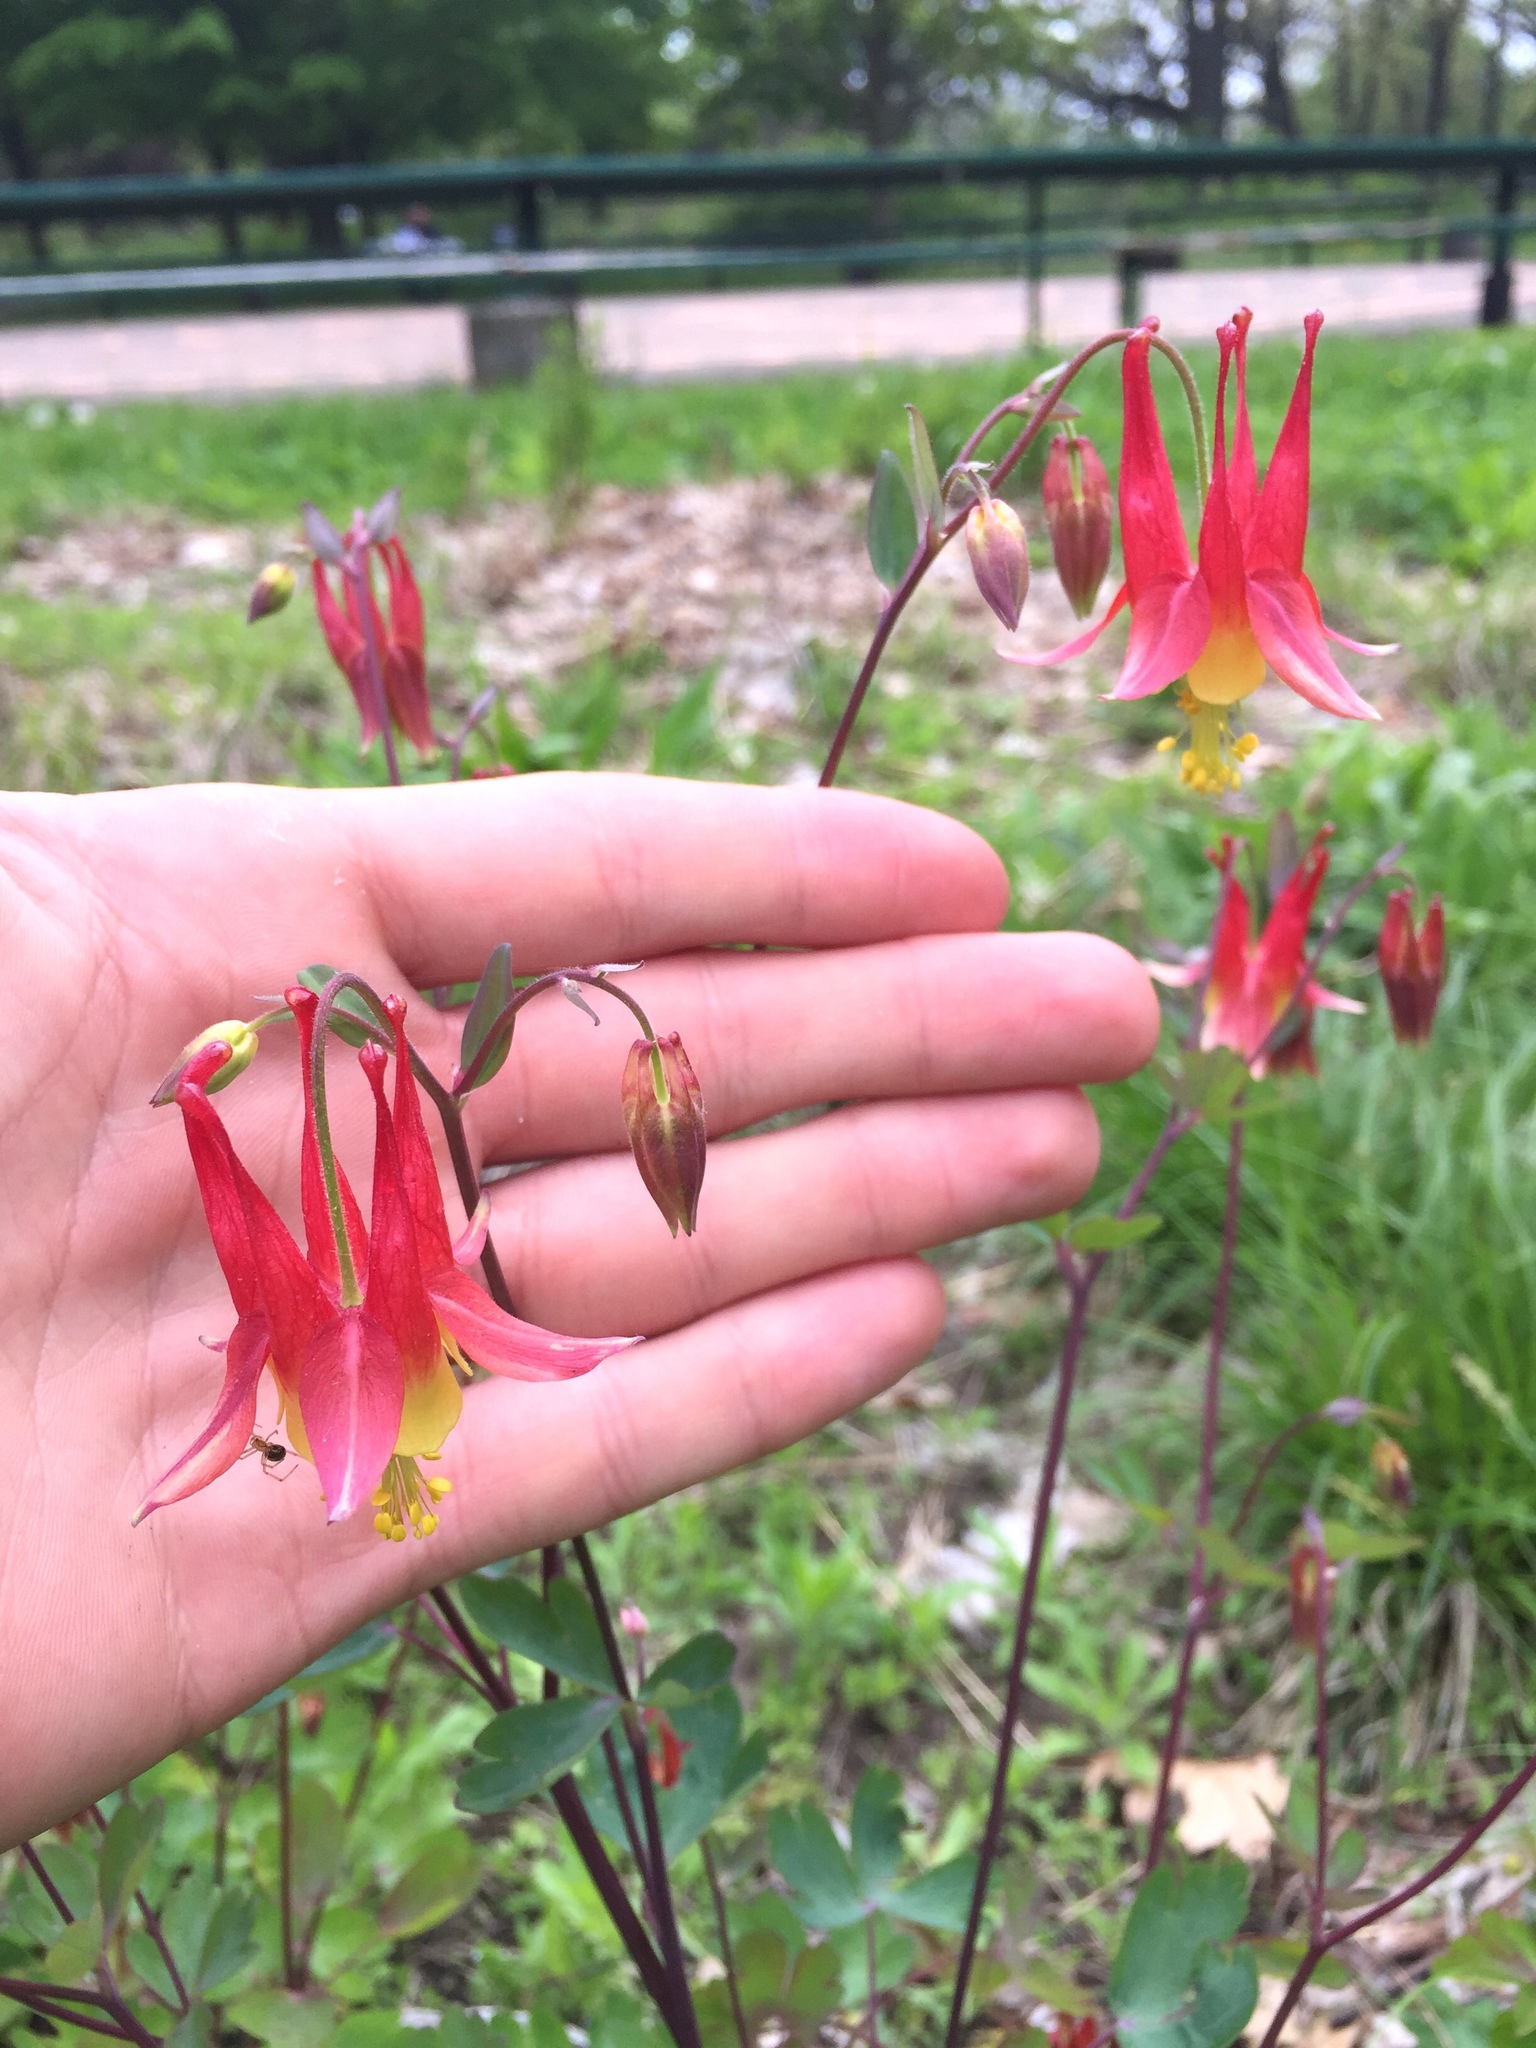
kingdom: Plantae
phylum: Tracheophyta
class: Magnoliopsida
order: Ranunculales
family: Ranunculaceae
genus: Aquilegia
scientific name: Aquilegia canadensis
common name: American columbine
